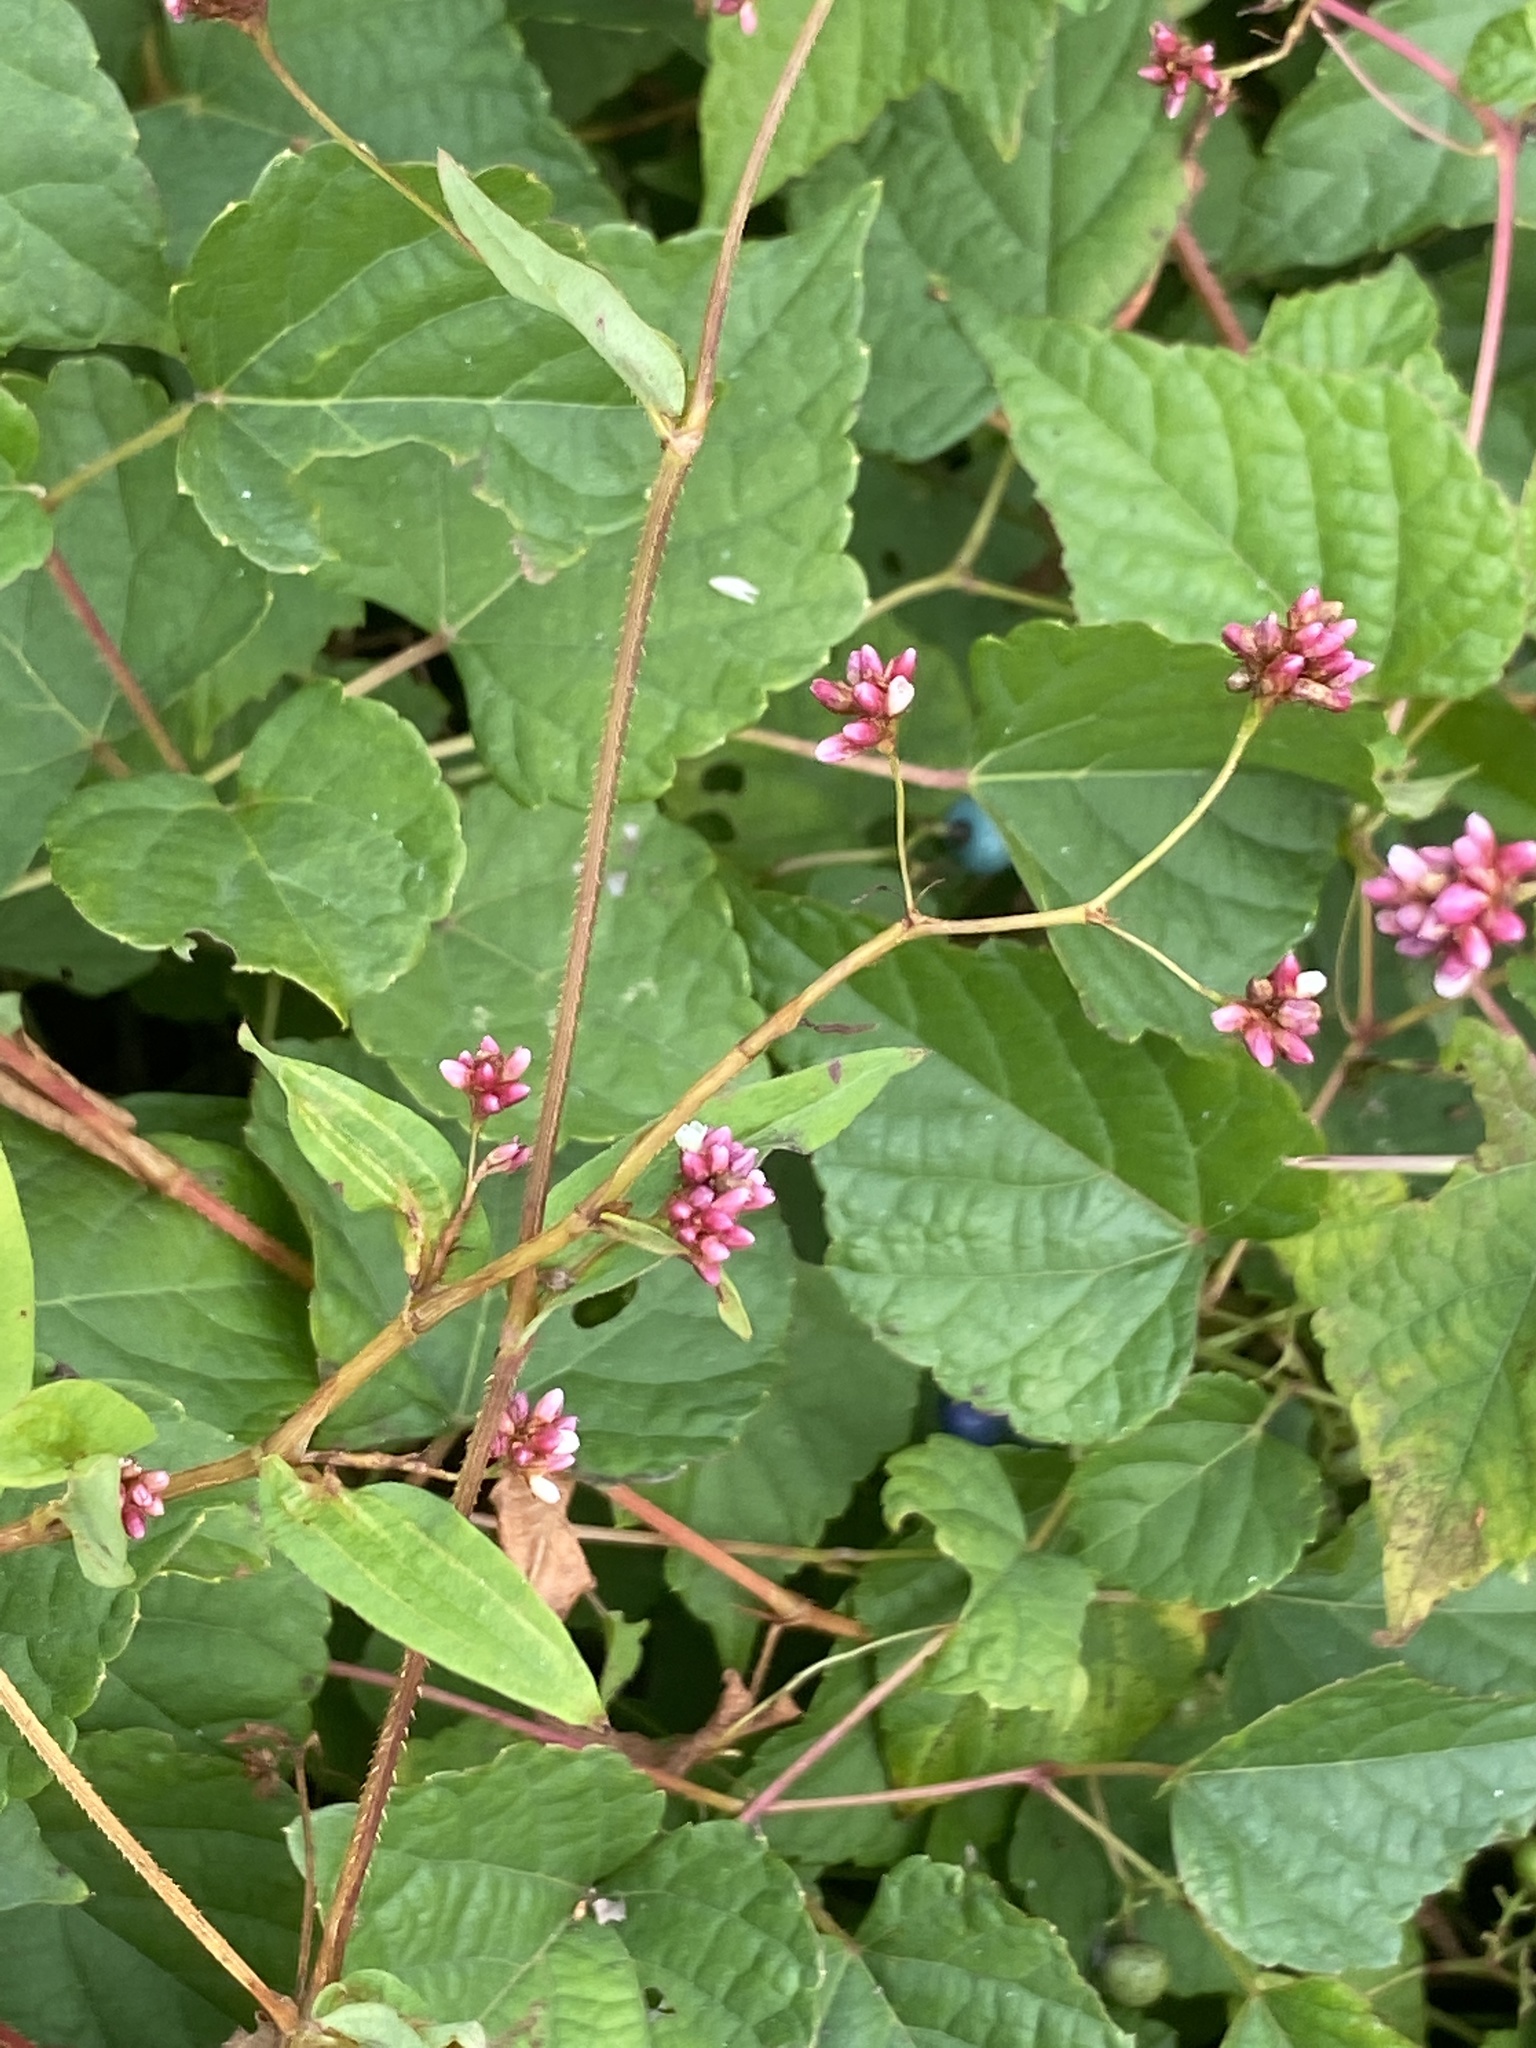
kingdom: Plantae
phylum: Tracheophyta
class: Magnoliopsida
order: Caryophyllales
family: Polygonaceae
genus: Persicaria
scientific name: Persicaria sagittata
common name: American tearthumb
